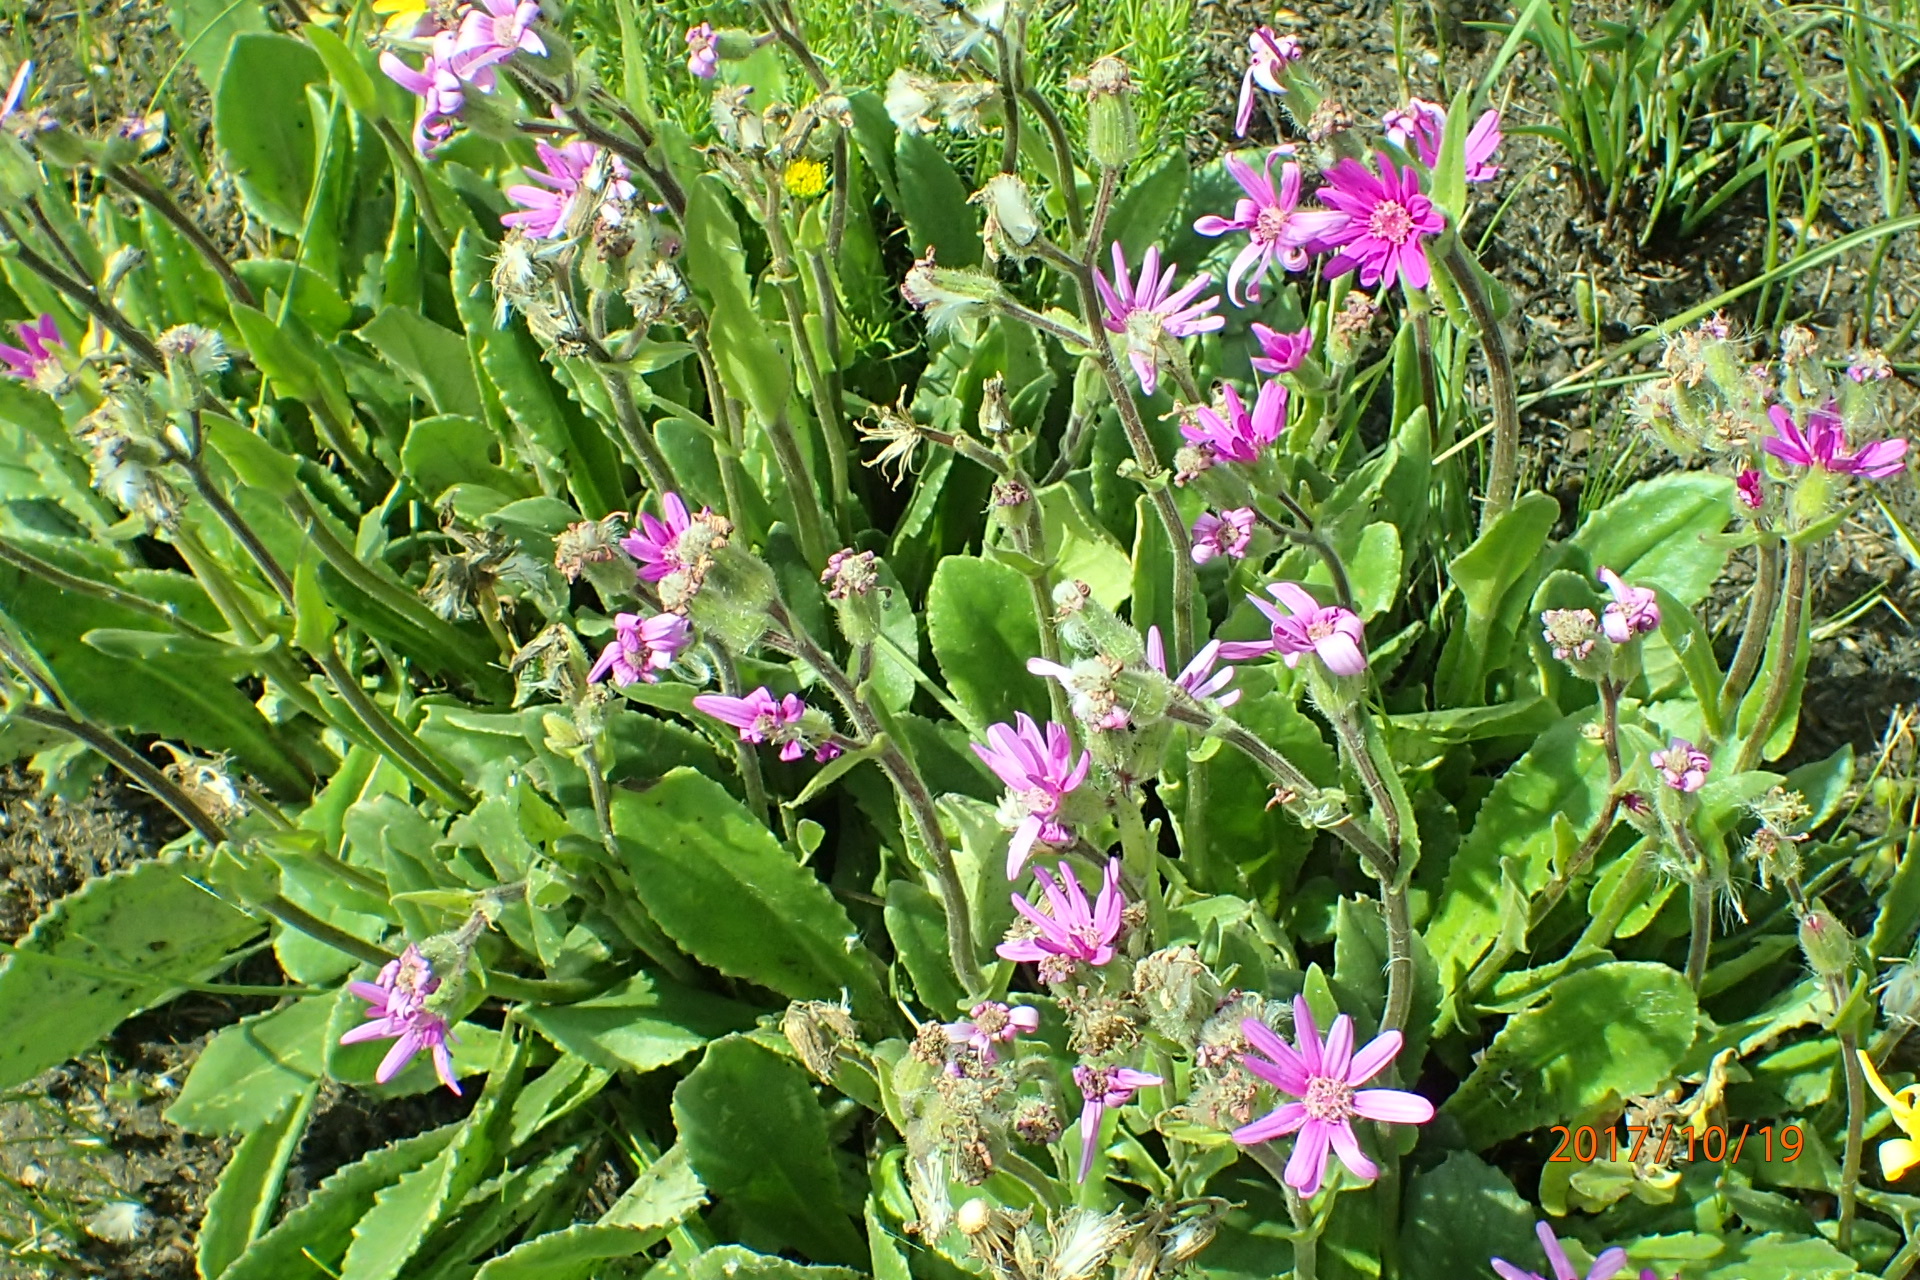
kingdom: Plantae
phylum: Tracheophyta
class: Magnoliopsida
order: Asterales
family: Asteraceae
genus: Senecio
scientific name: Senecio speciosus
